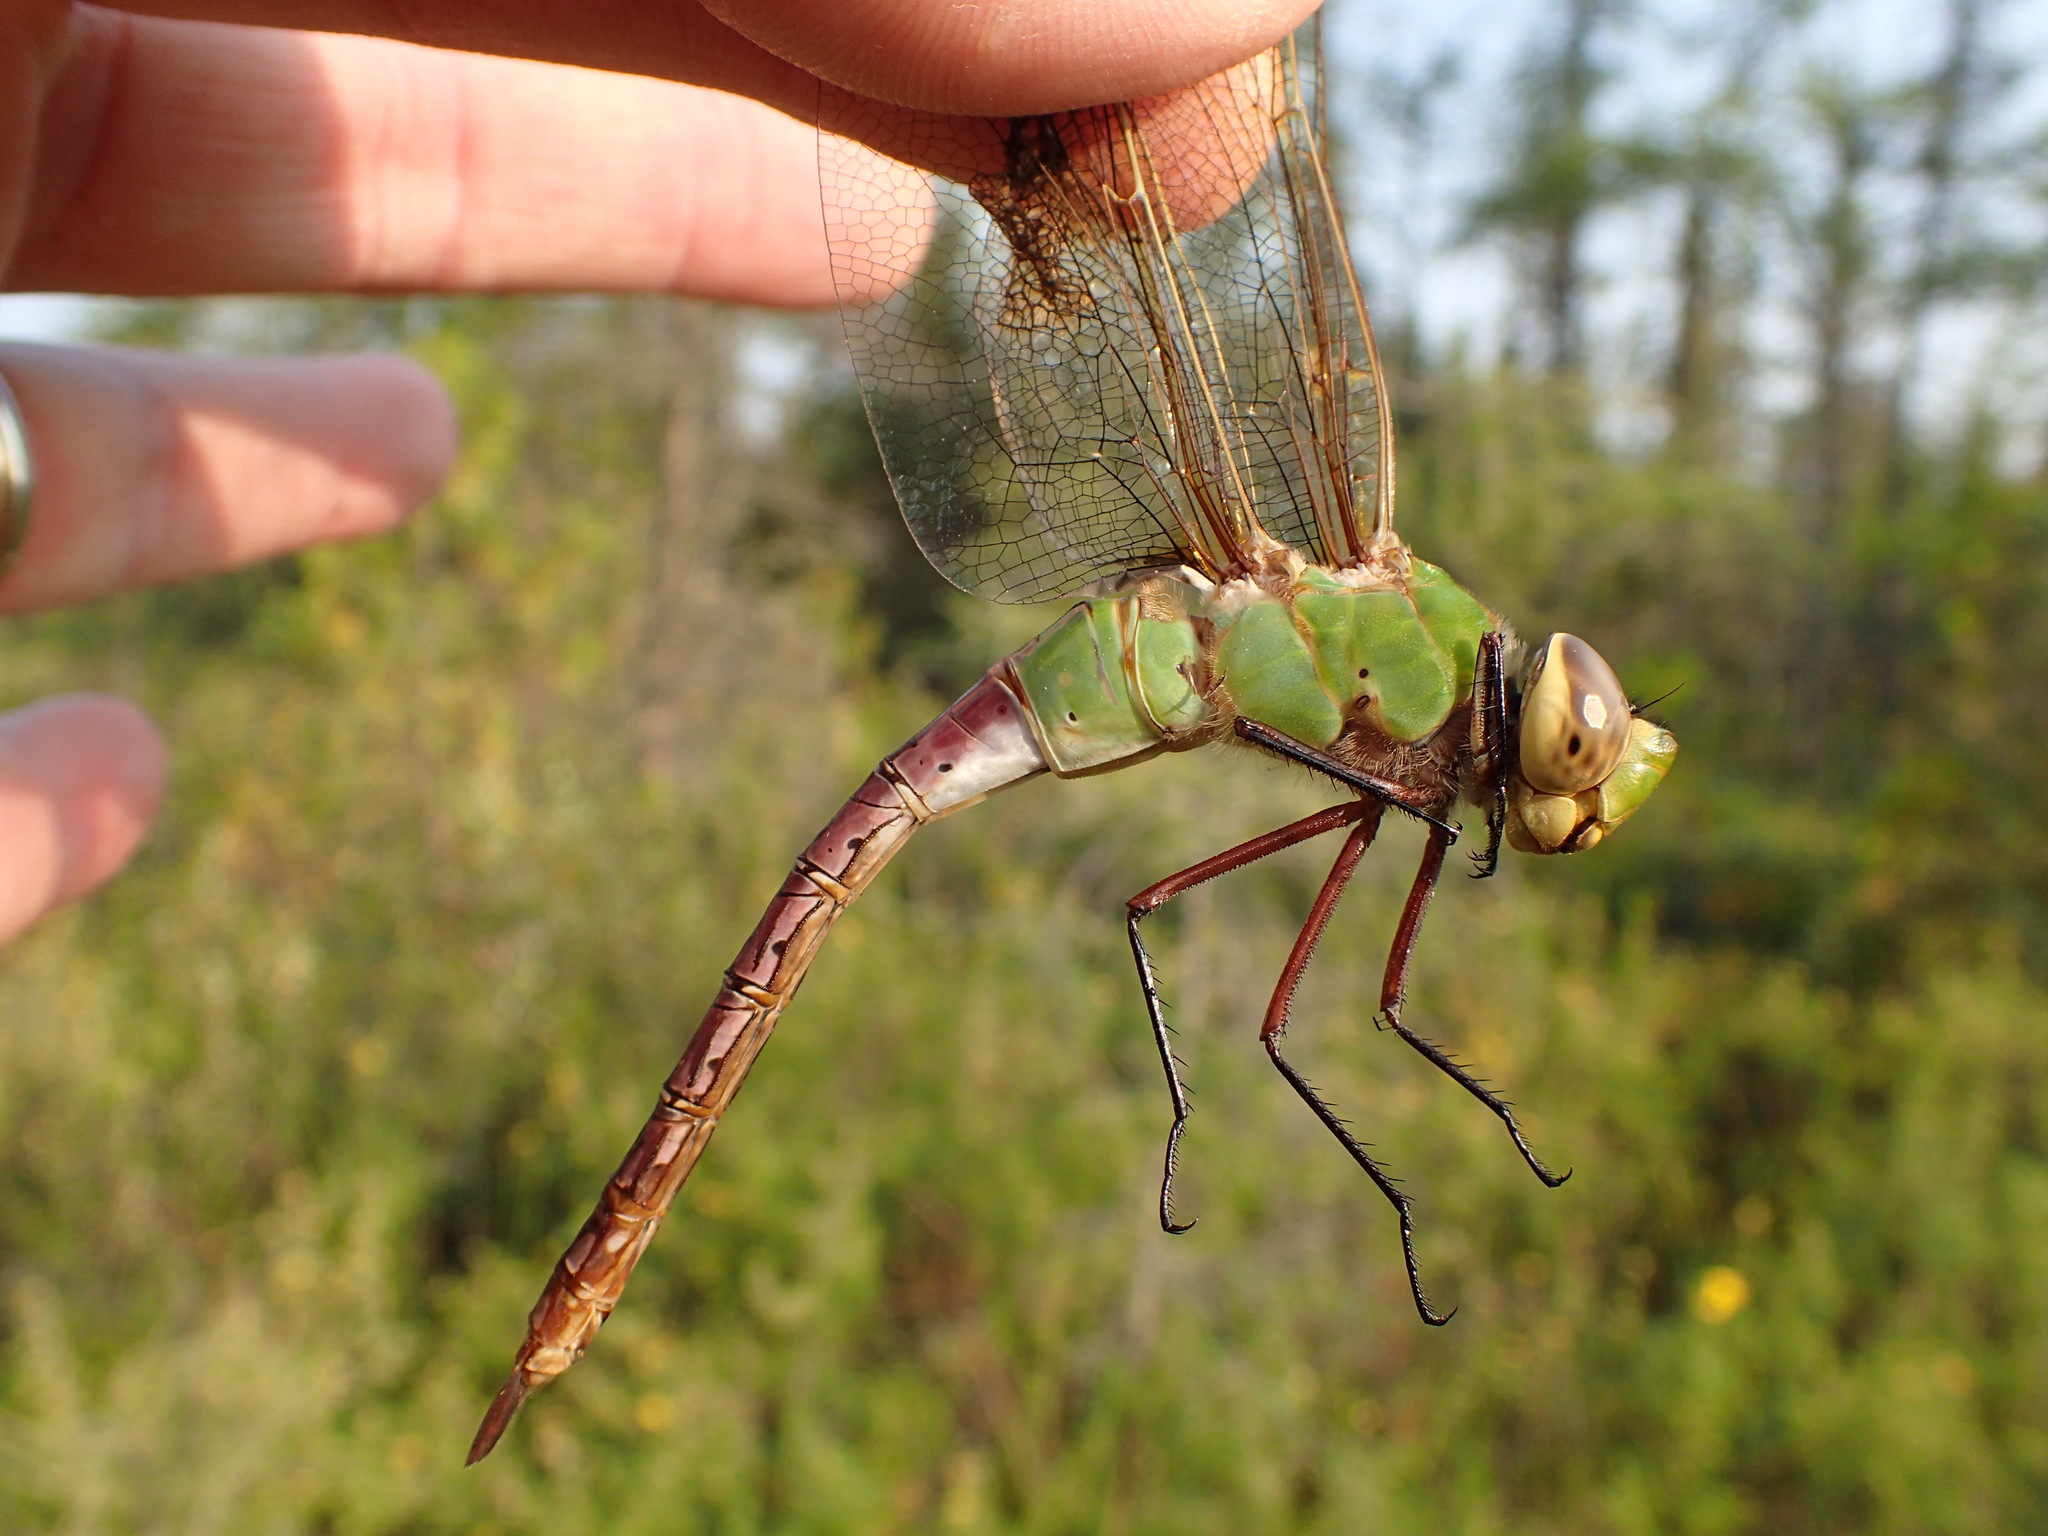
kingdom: Animalia
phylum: Arthropoda
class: Insecta
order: Odonata
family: Aeshnidae
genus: Anax
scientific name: Anax junius
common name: Common green darner
